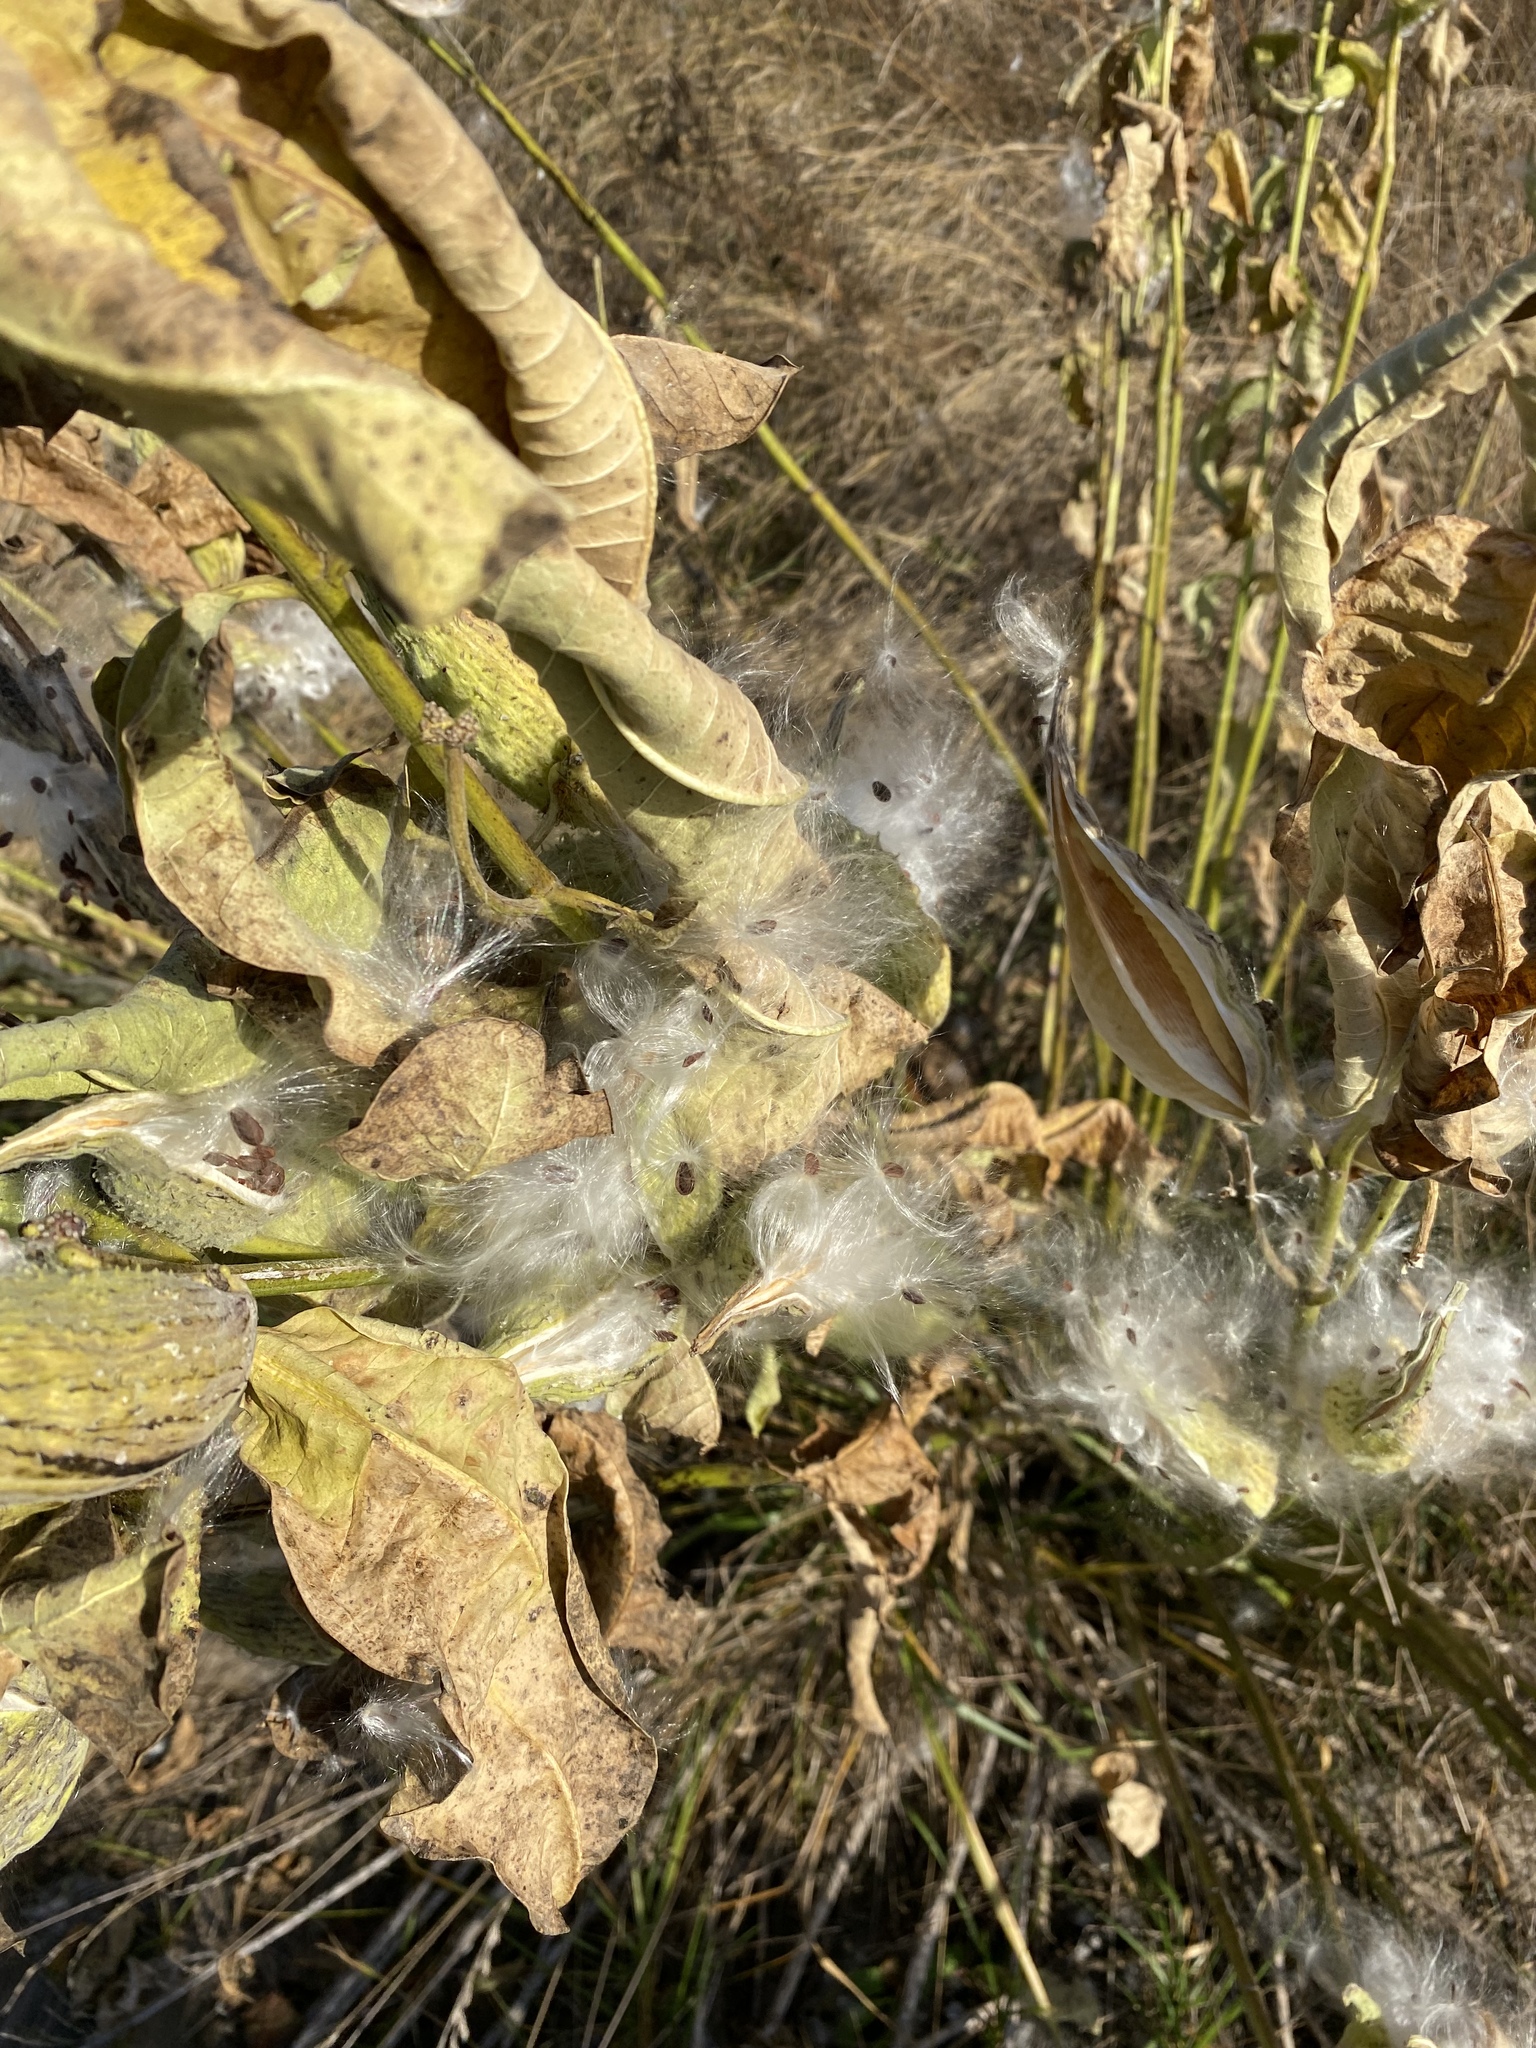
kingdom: Plantae
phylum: Tracheophyta
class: Magnoliopsida
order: Gentianales
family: Apocynaceae
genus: Asclepias
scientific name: Asclepias syriaca
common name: Common milkweed
